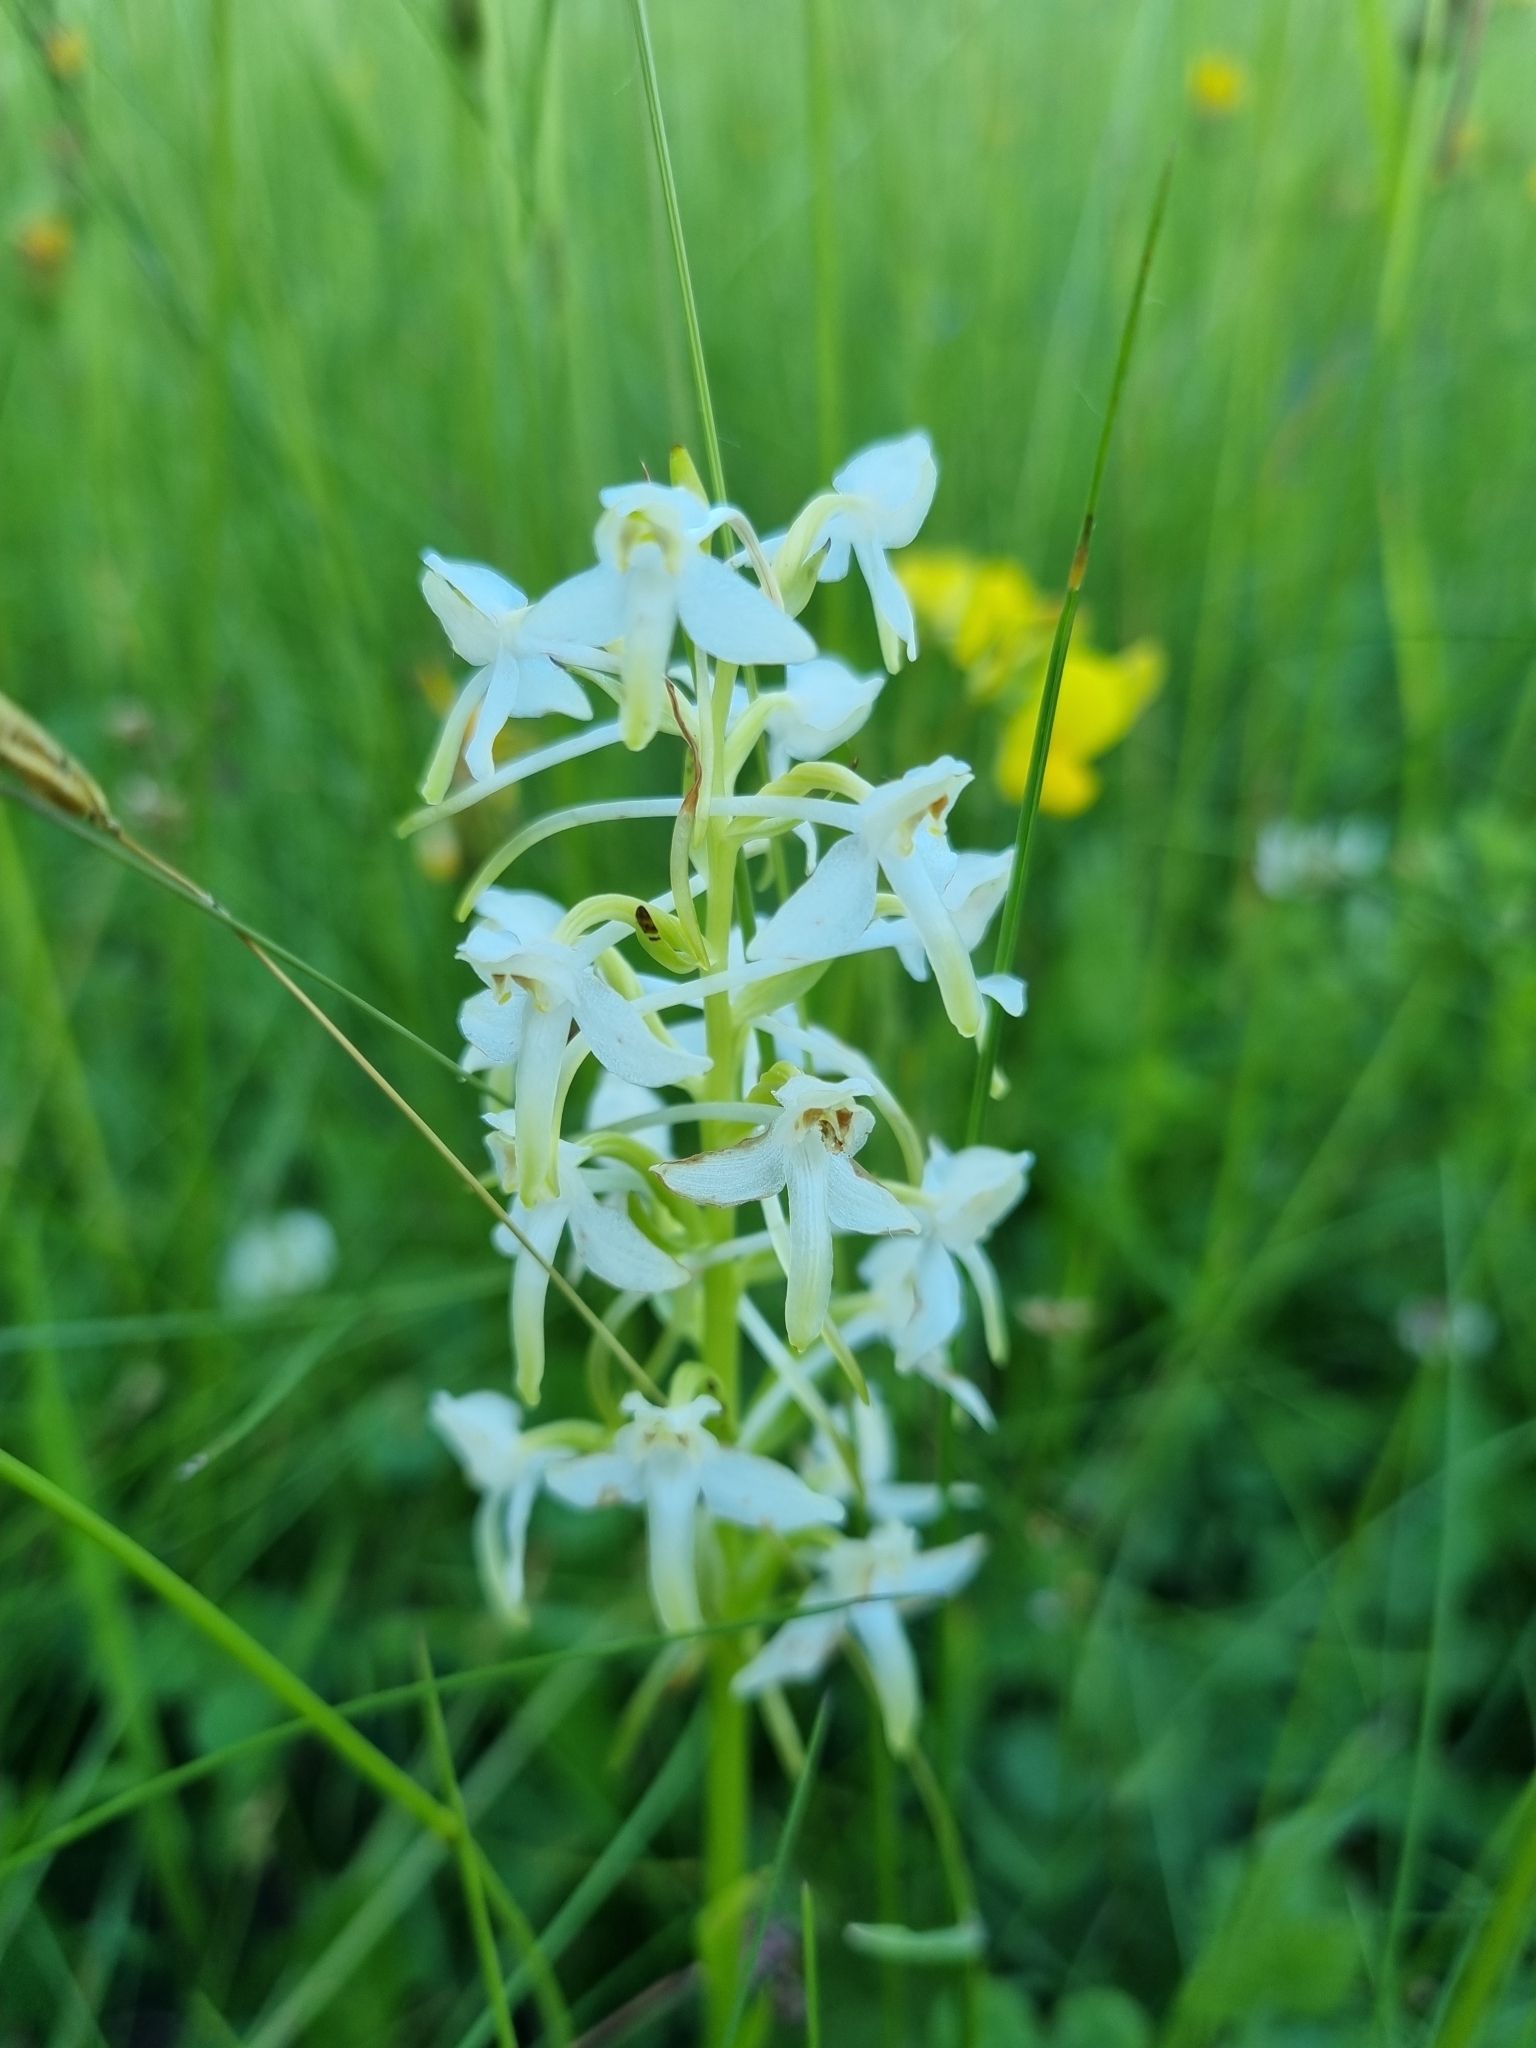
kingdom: Plantae
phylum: Tracheophyta
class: Liliopsida
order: Asparagales
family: Orchidaceae
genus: Platanthera
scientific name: Platanthera chlorantha
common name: Greater butterfly-orchid
